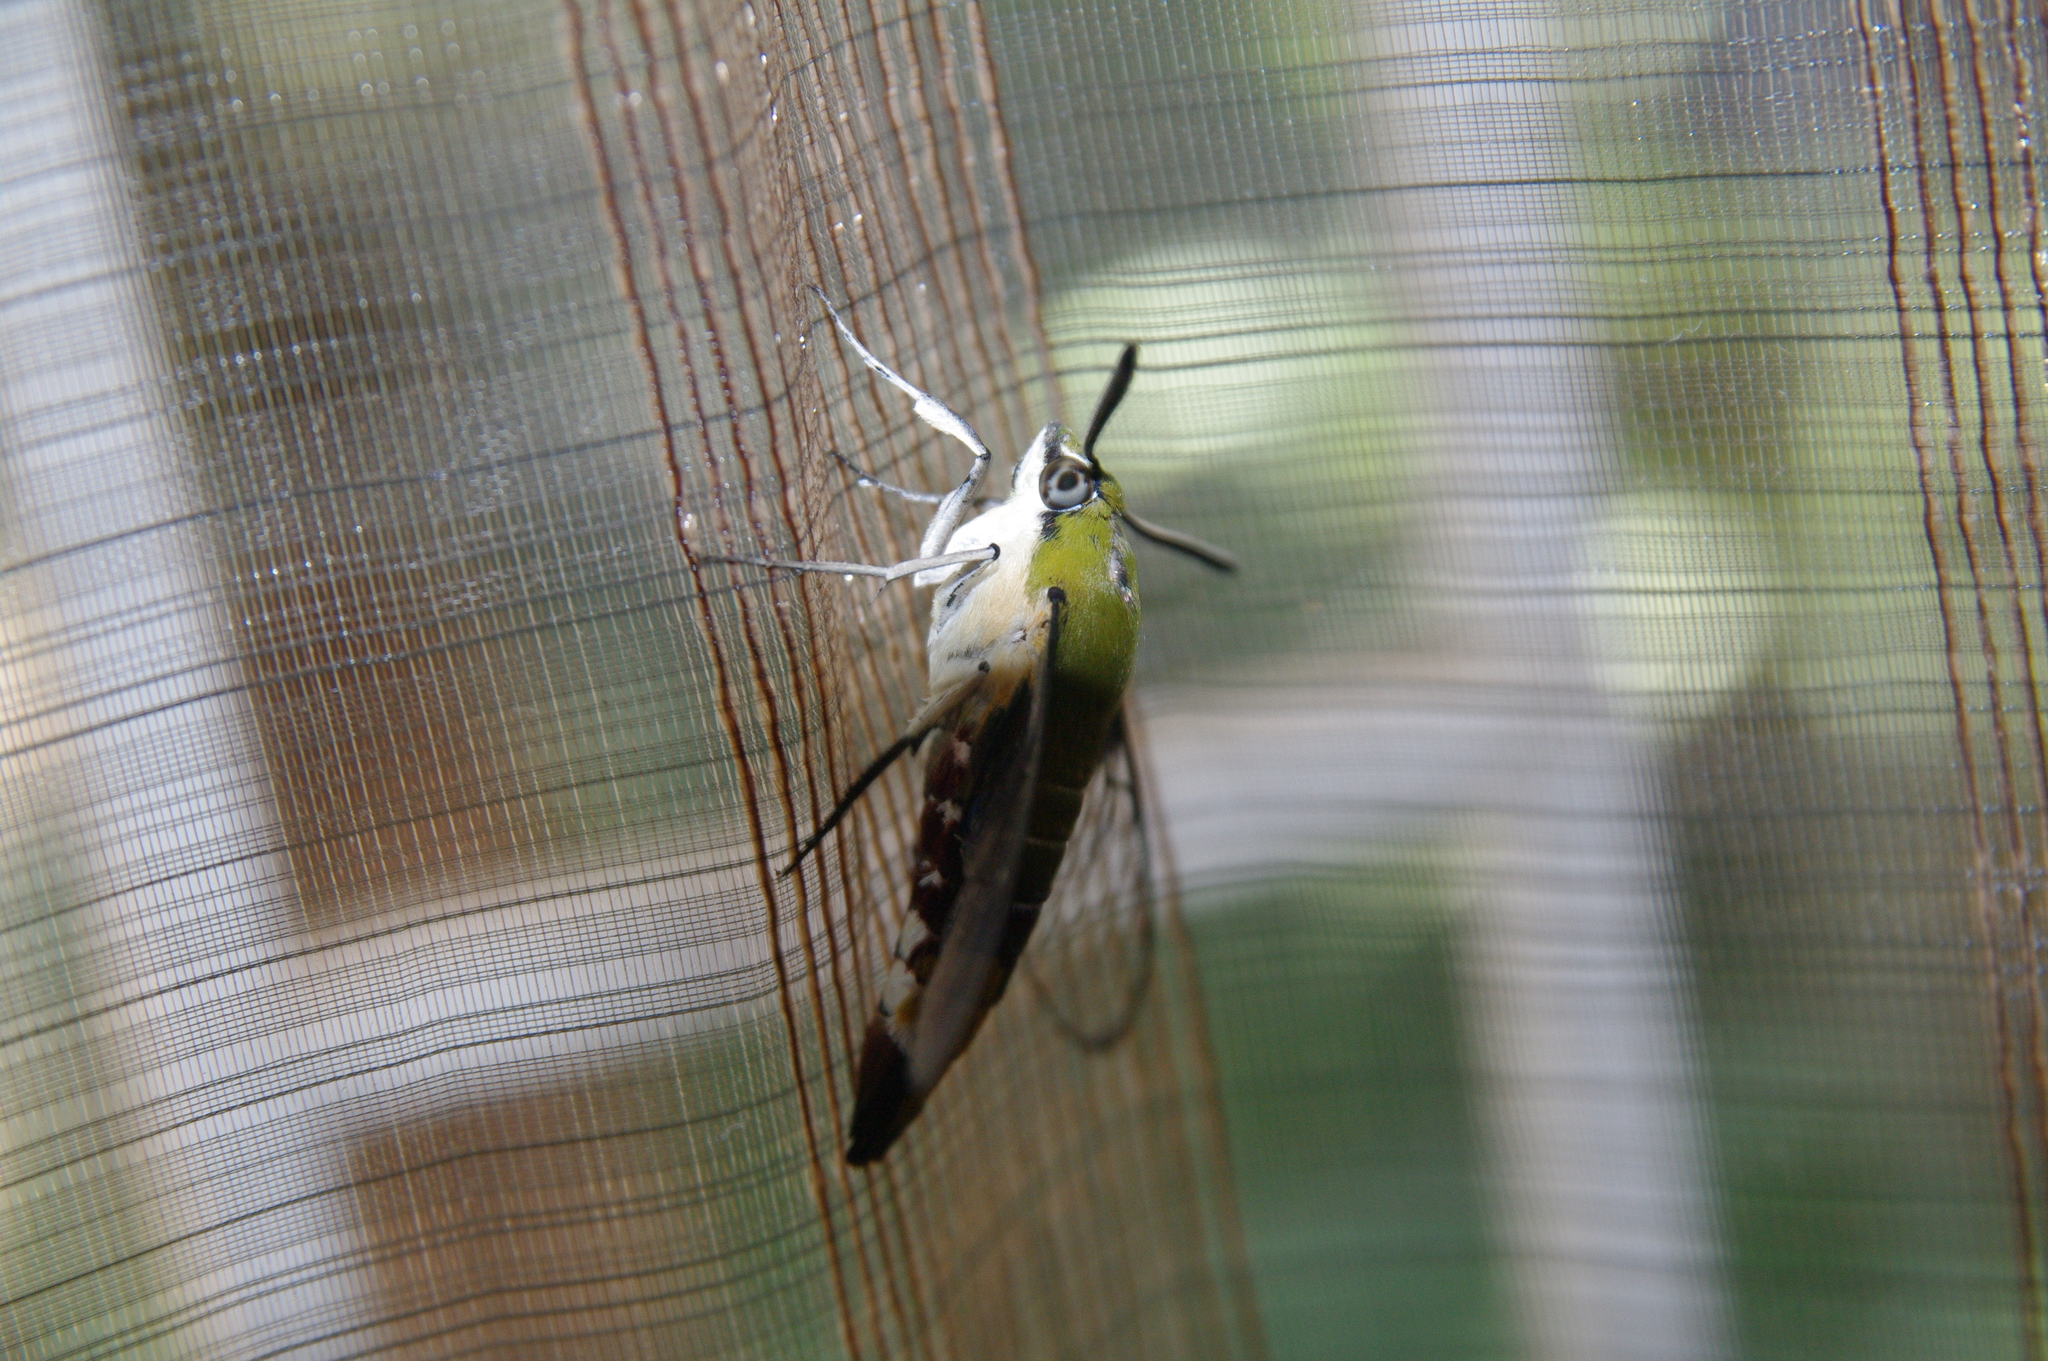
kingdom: Animalia
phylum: Arthropoda
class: Insecta
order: Lepidoptera
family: Sphingidae
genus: Cephonodes
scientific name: Cephonodes hylas
